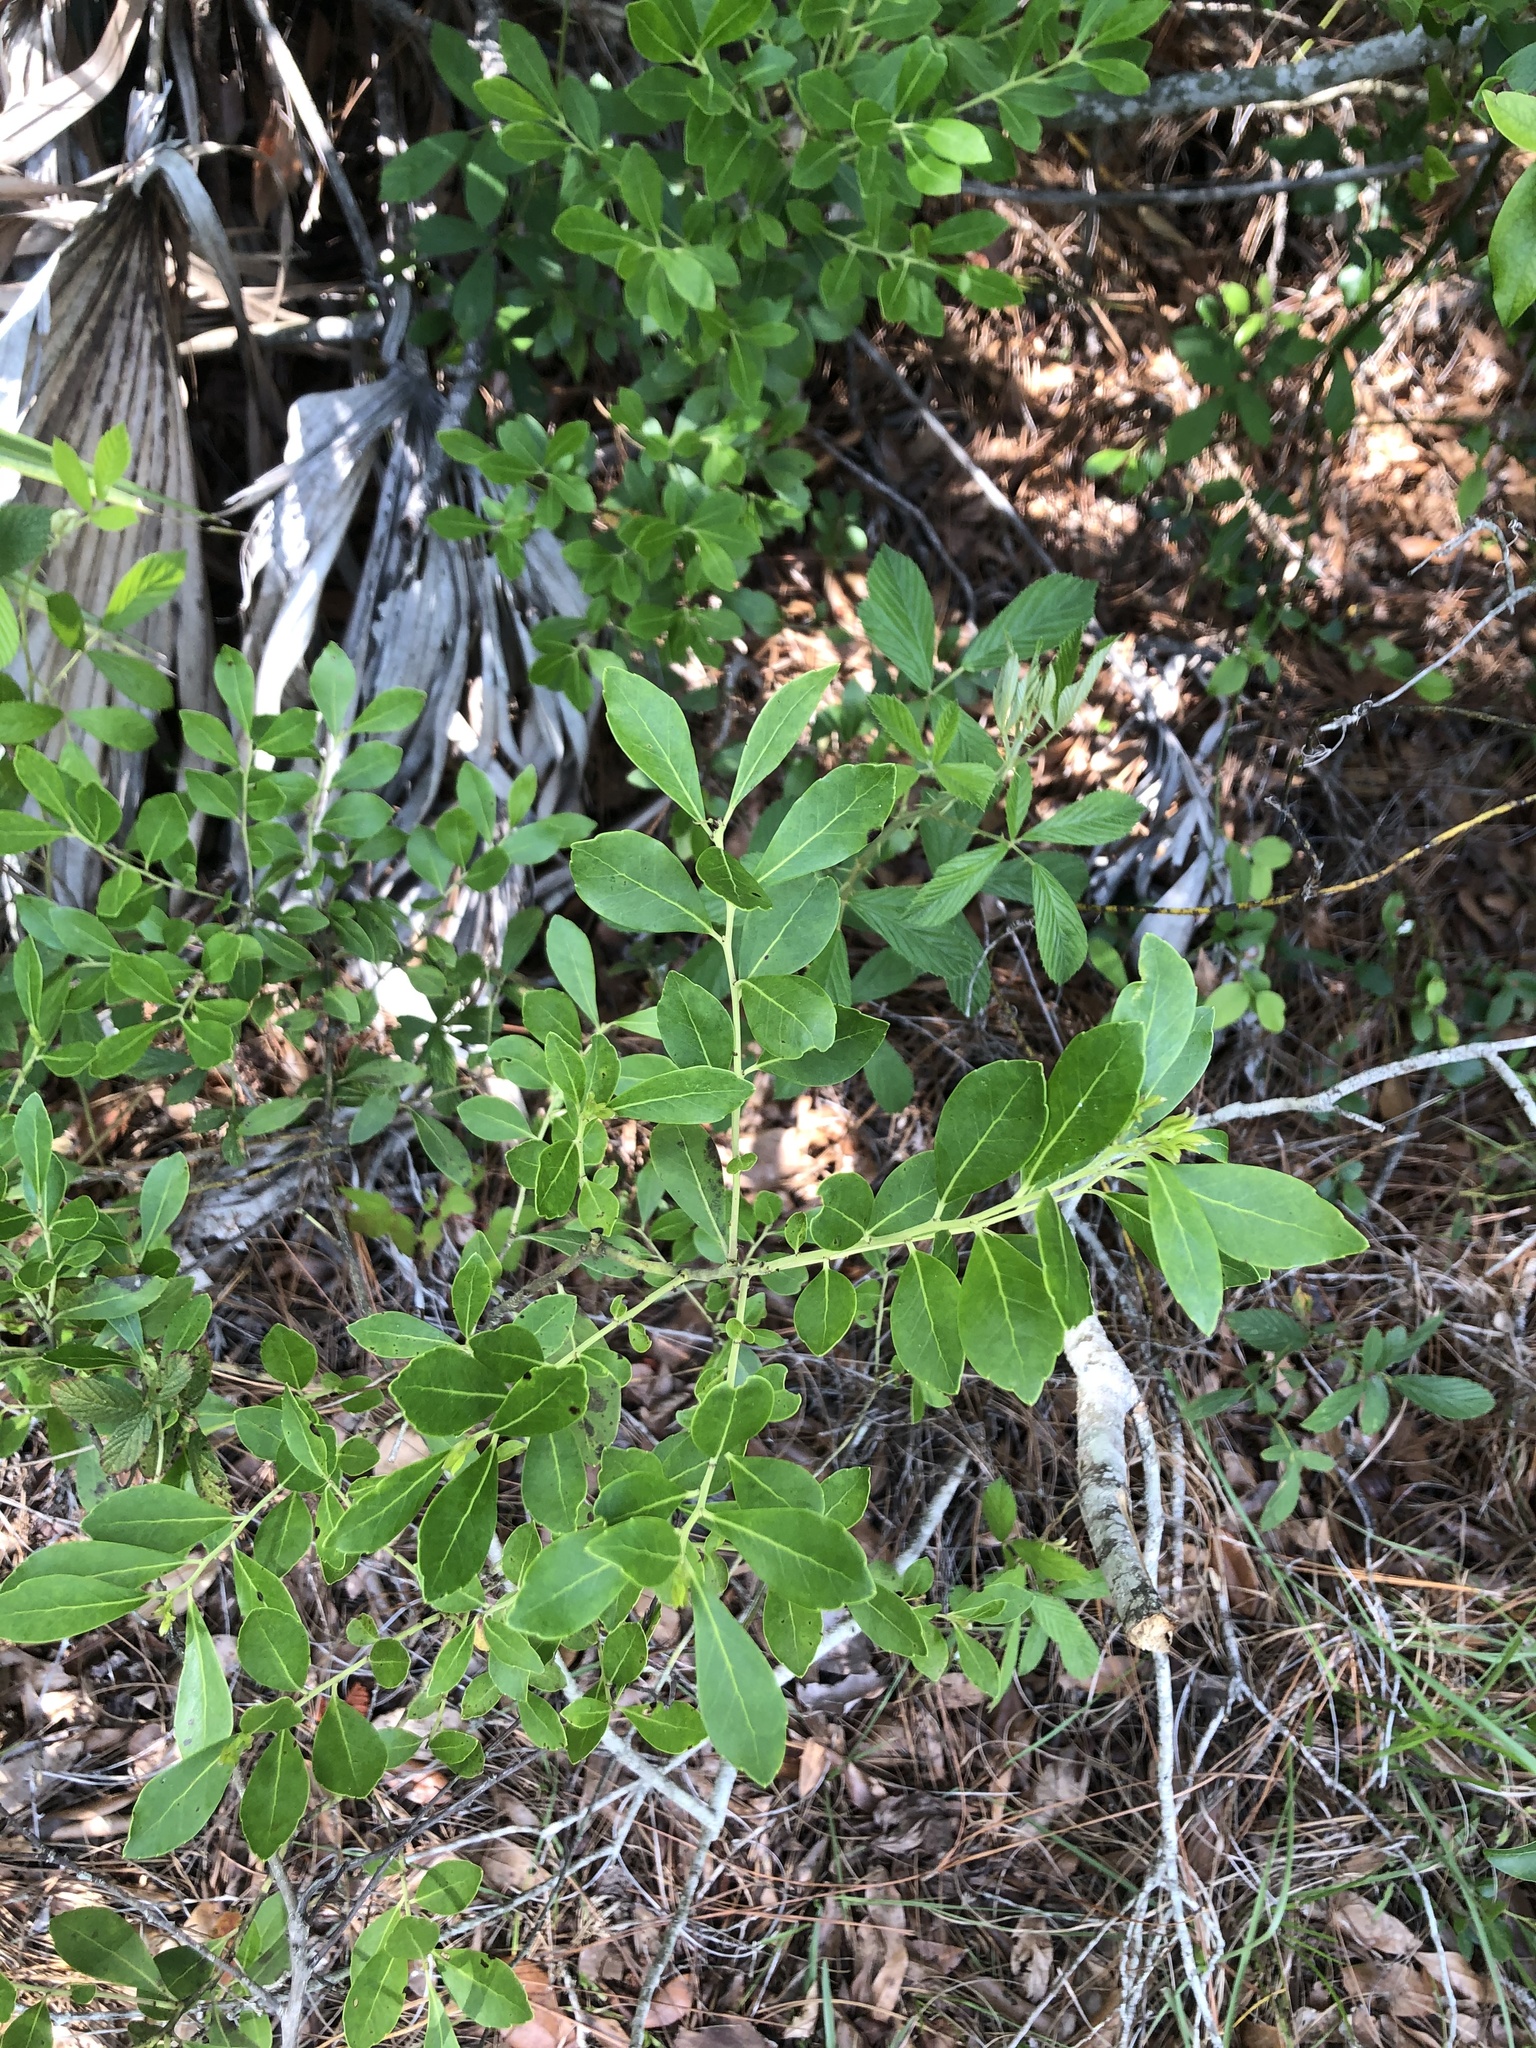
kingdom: Plantae
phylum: Tracheophyta
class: Magnoliopsida
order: Aquifoliales
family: Aquifoliaceae
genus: Ilex
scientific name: Ilex glabra
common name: Bitter gallberry
